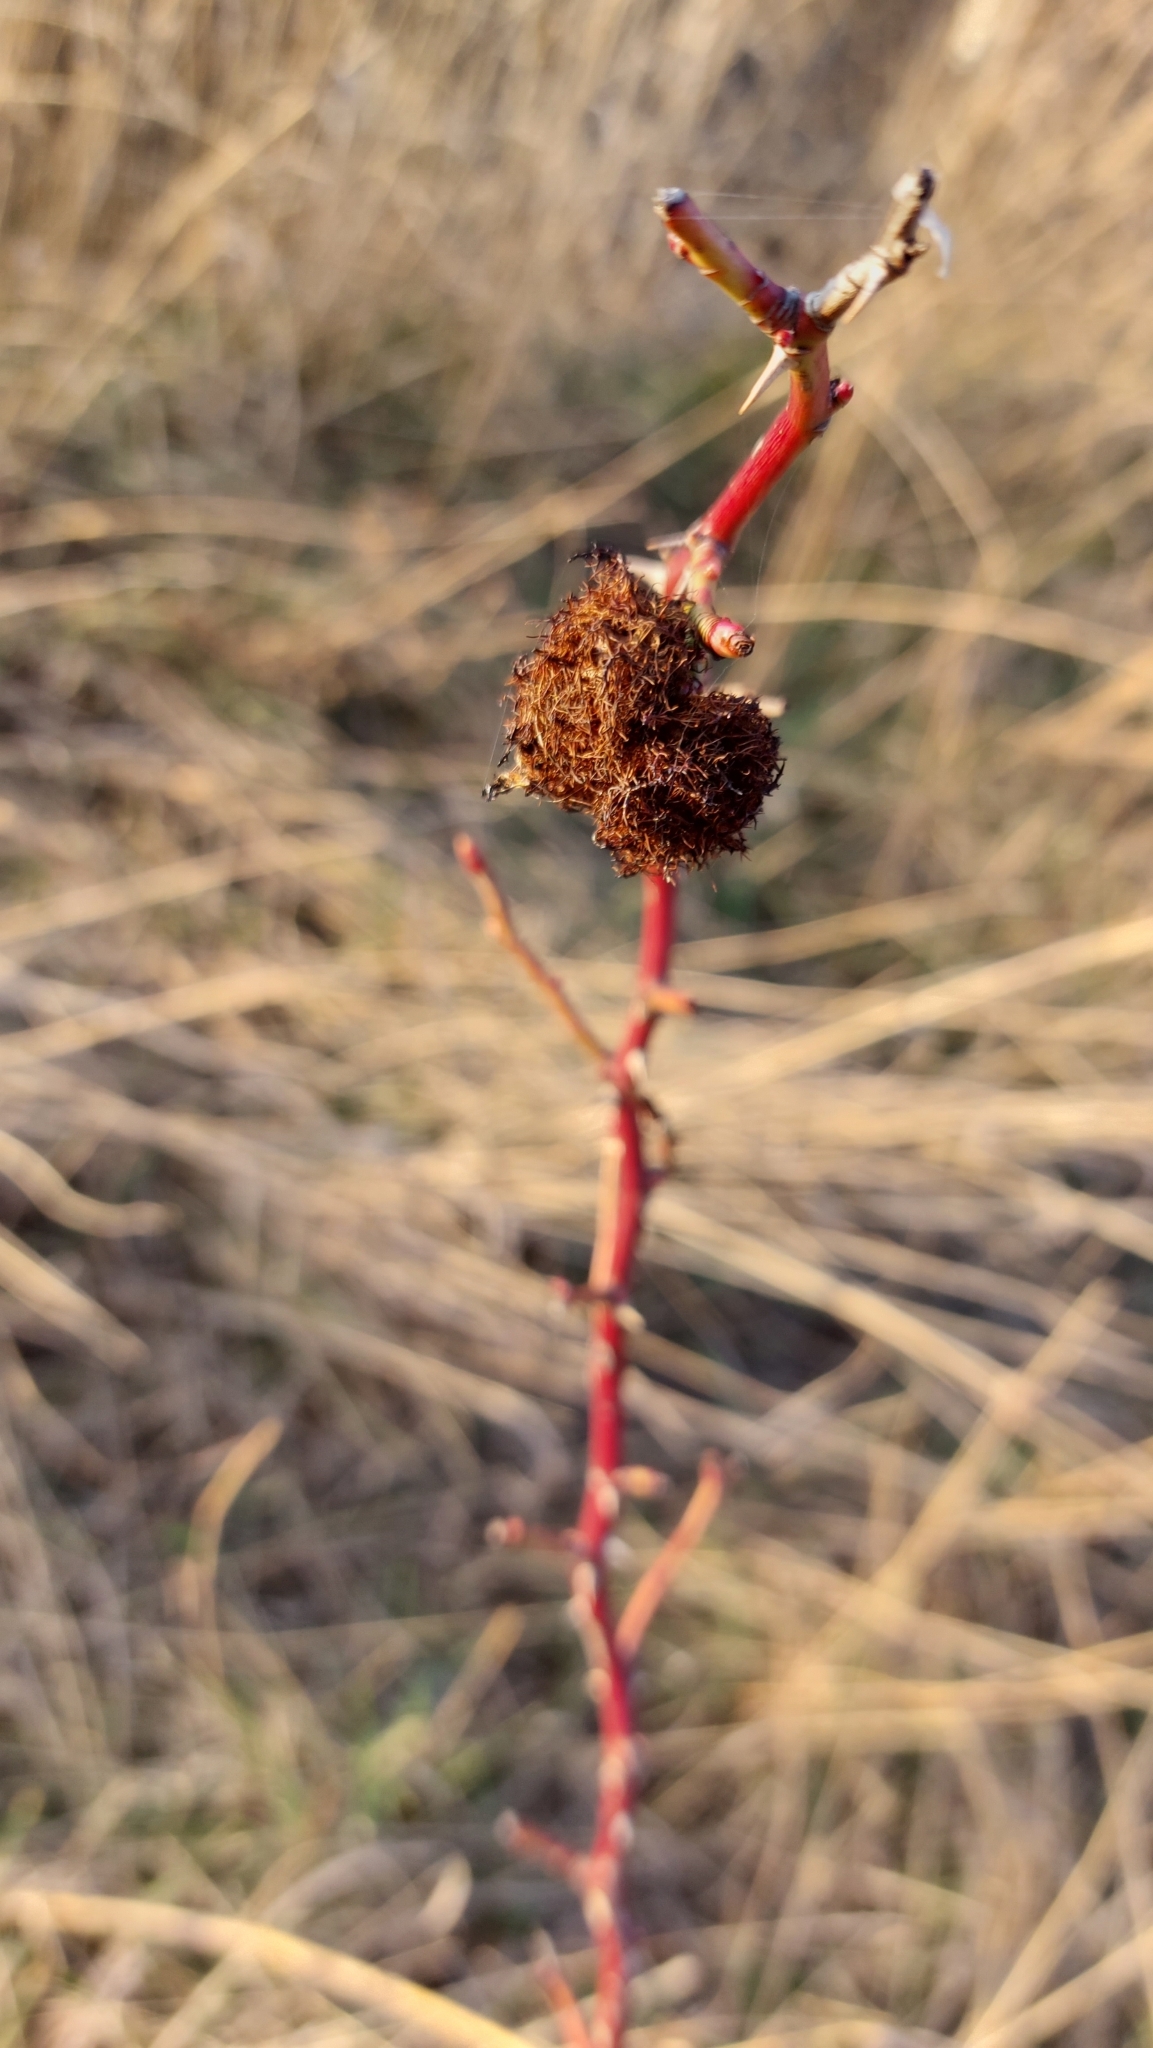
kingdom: Animalia
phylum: Arthropoda
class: Insecta
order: Hymenoptera
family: Cynipidae
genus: Diplolepis
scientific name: Diplolepis rosae
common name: Bedeguar gall
